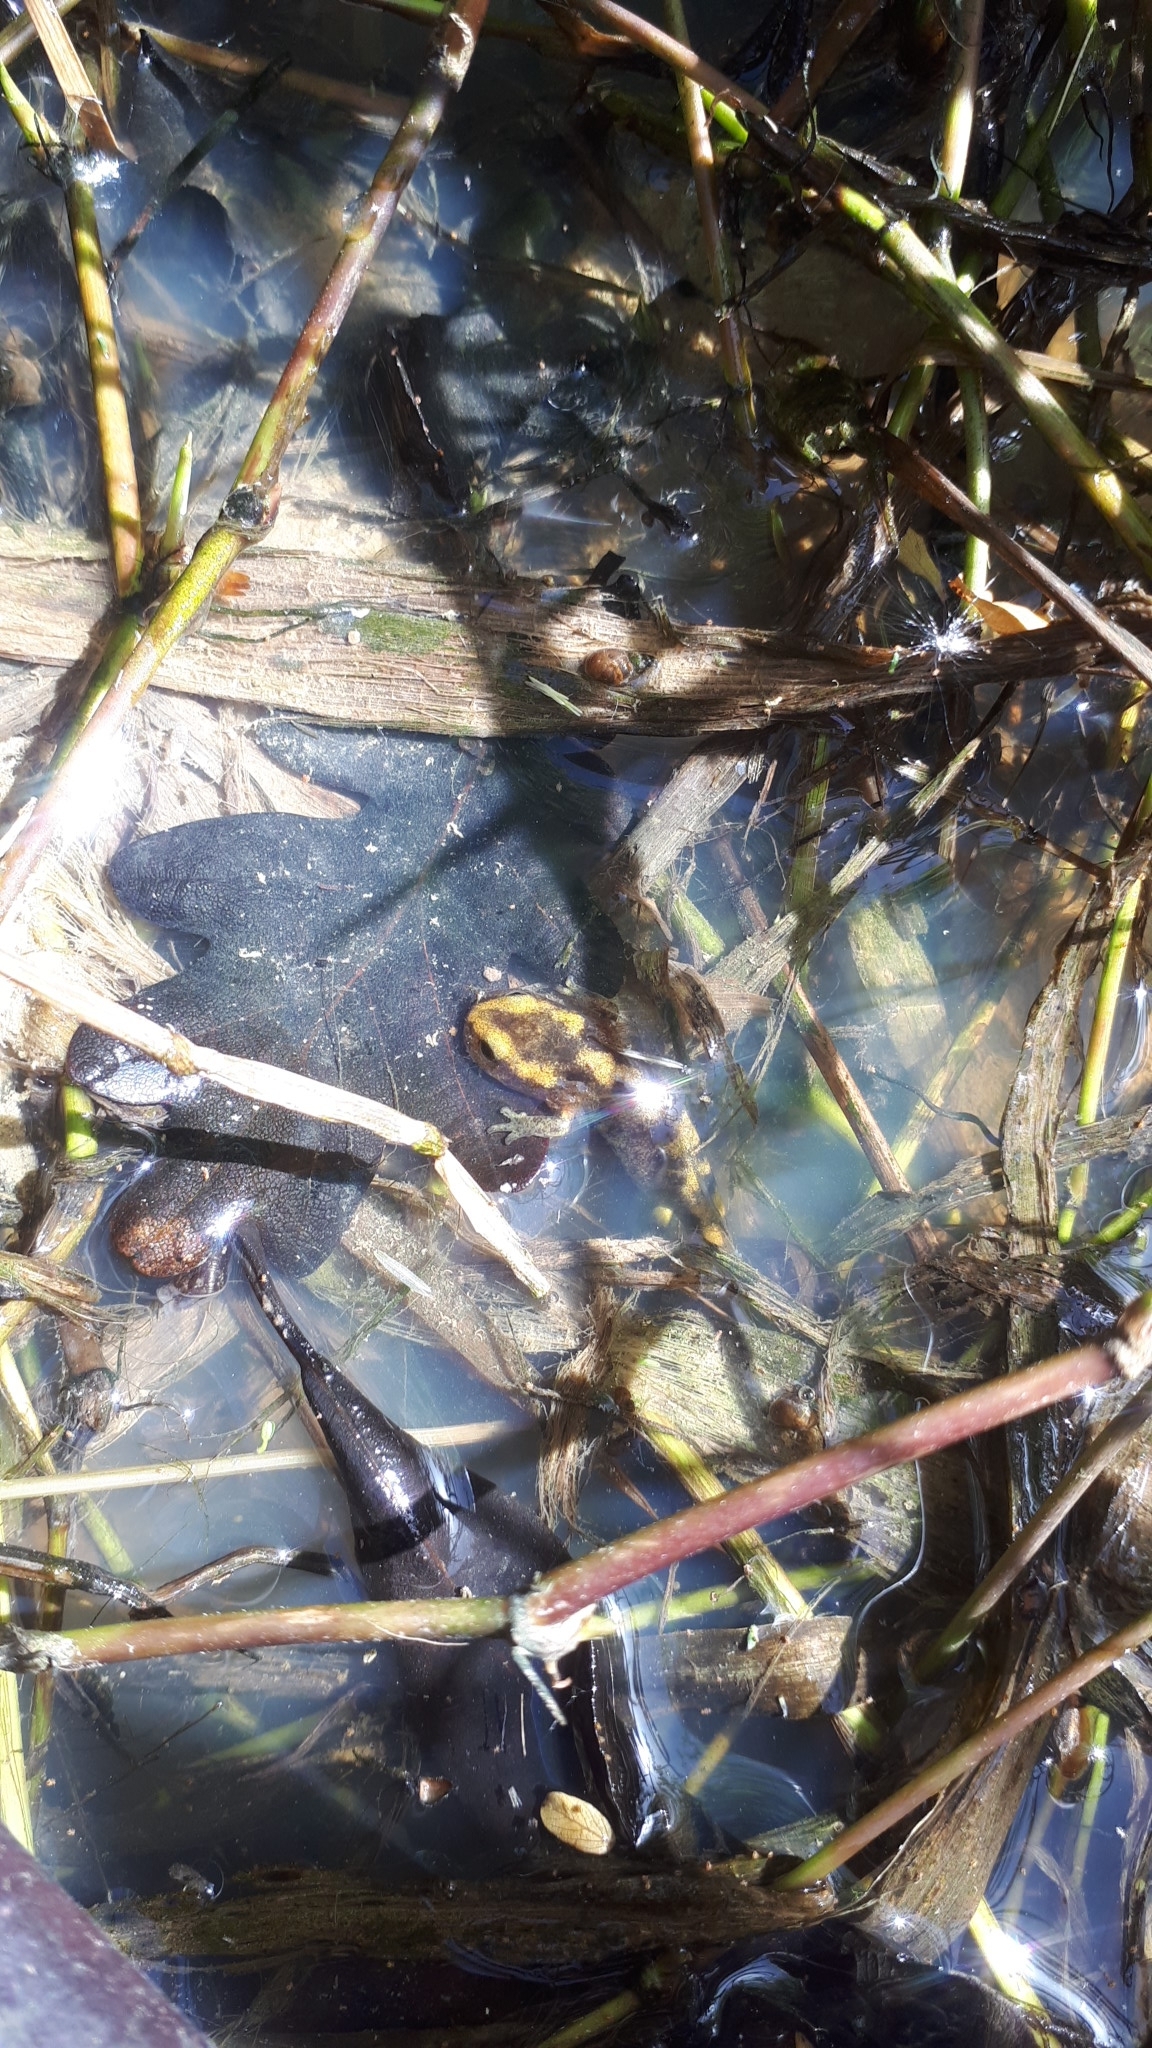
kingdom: Animalia
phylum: Chordata
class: Amphibia
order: Caudata
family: Salamandridae
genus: Salamandra
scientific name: Salamandra salamandra
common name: Fire salamander
